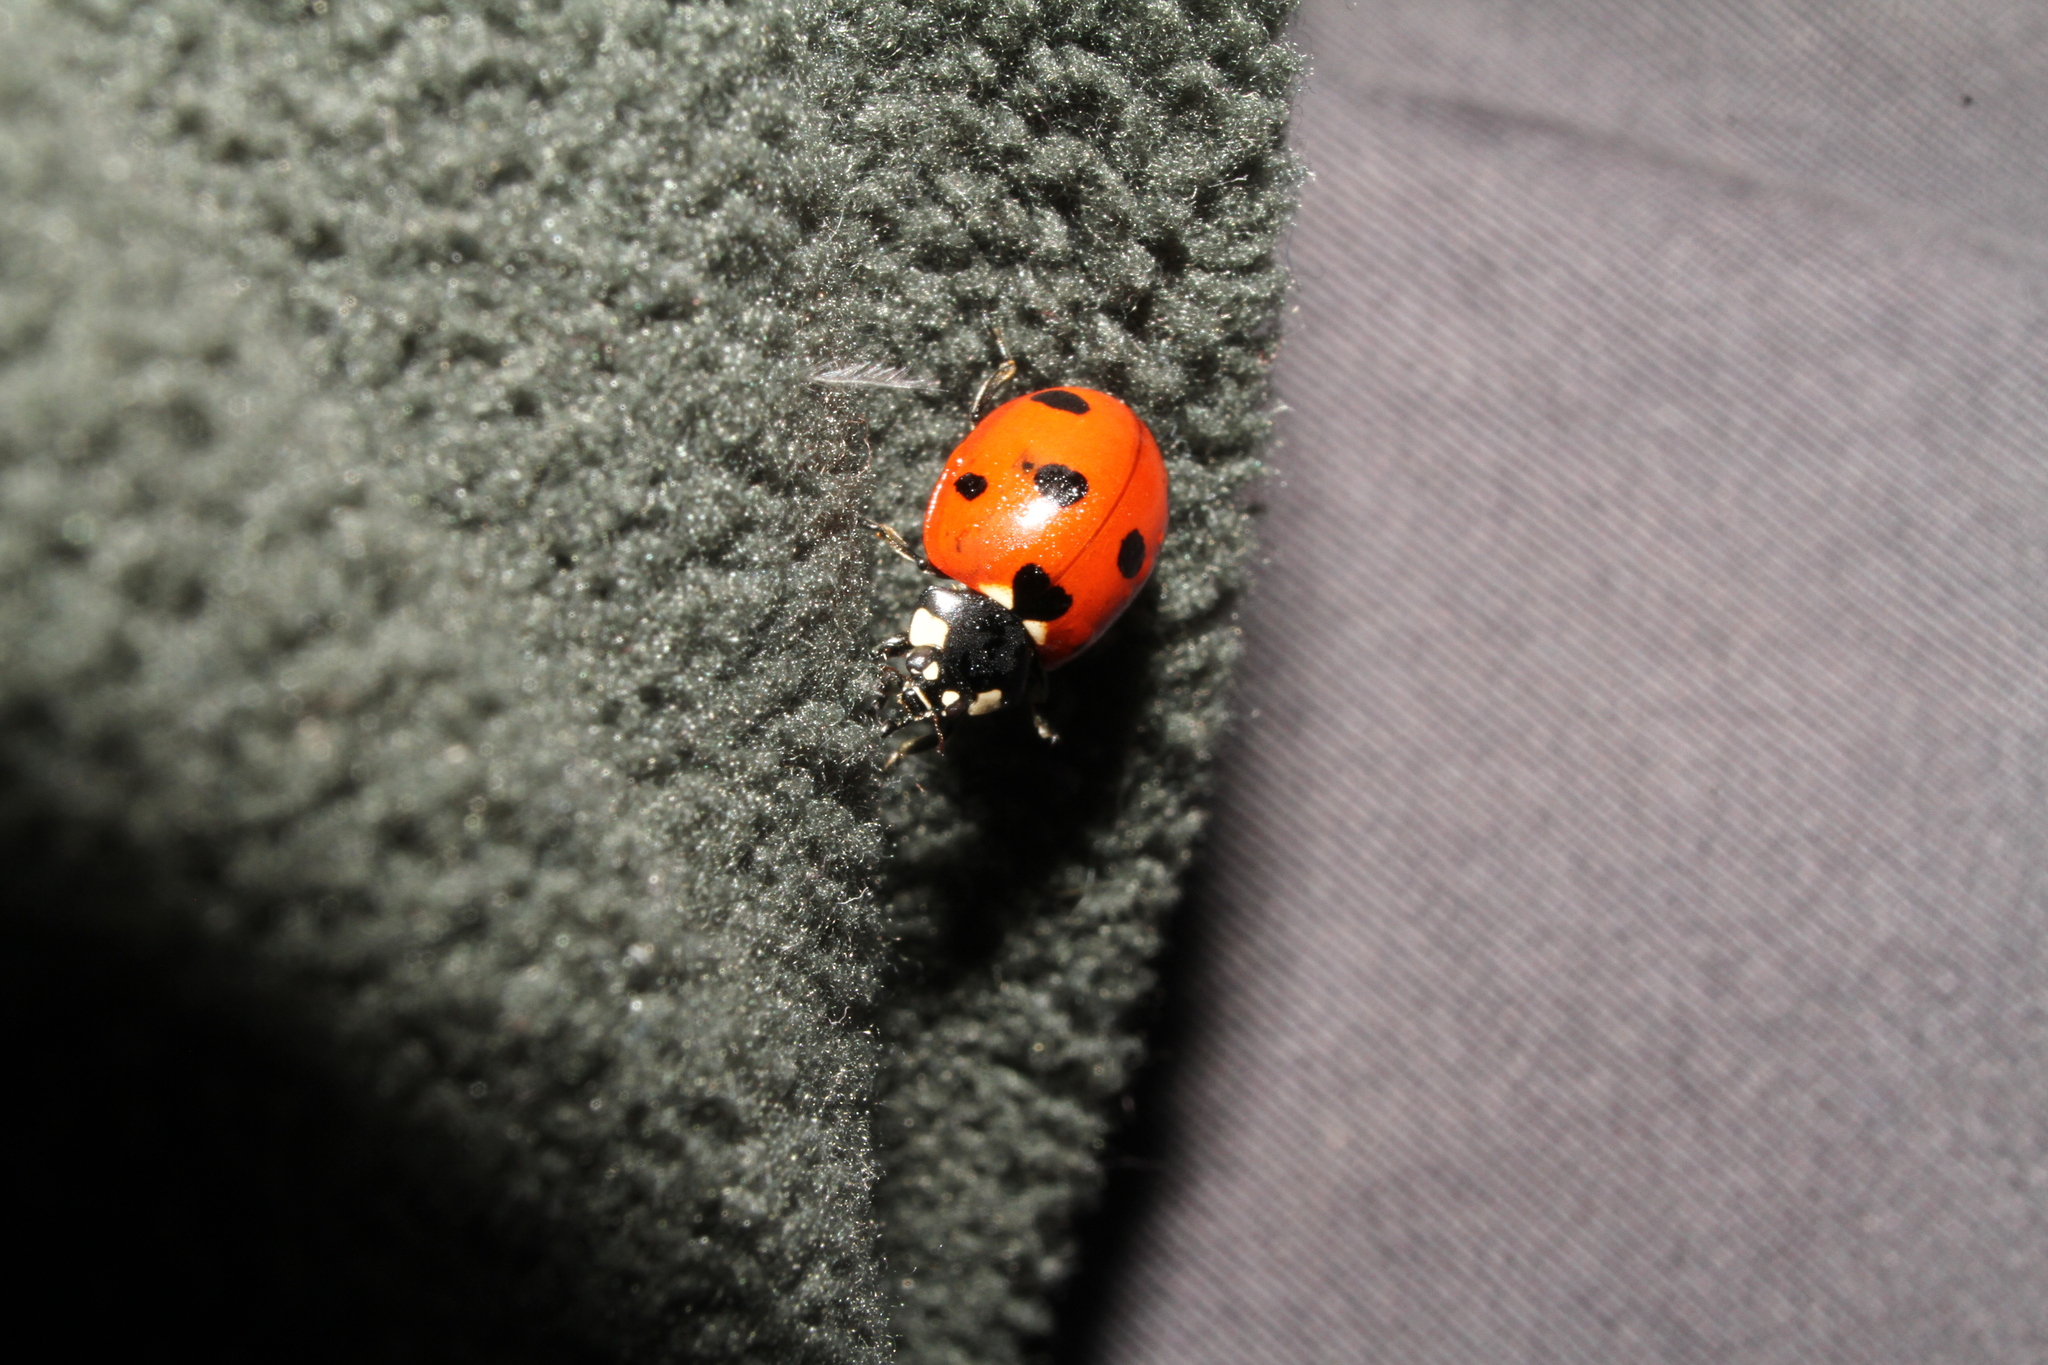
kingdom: Animalia
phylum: Arthropoda
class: Insecta
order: Coleoptera
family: Coccinellidae
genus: Coccinella
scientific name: Coccinella septempunctata
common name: Sevenspotted lady beetle
